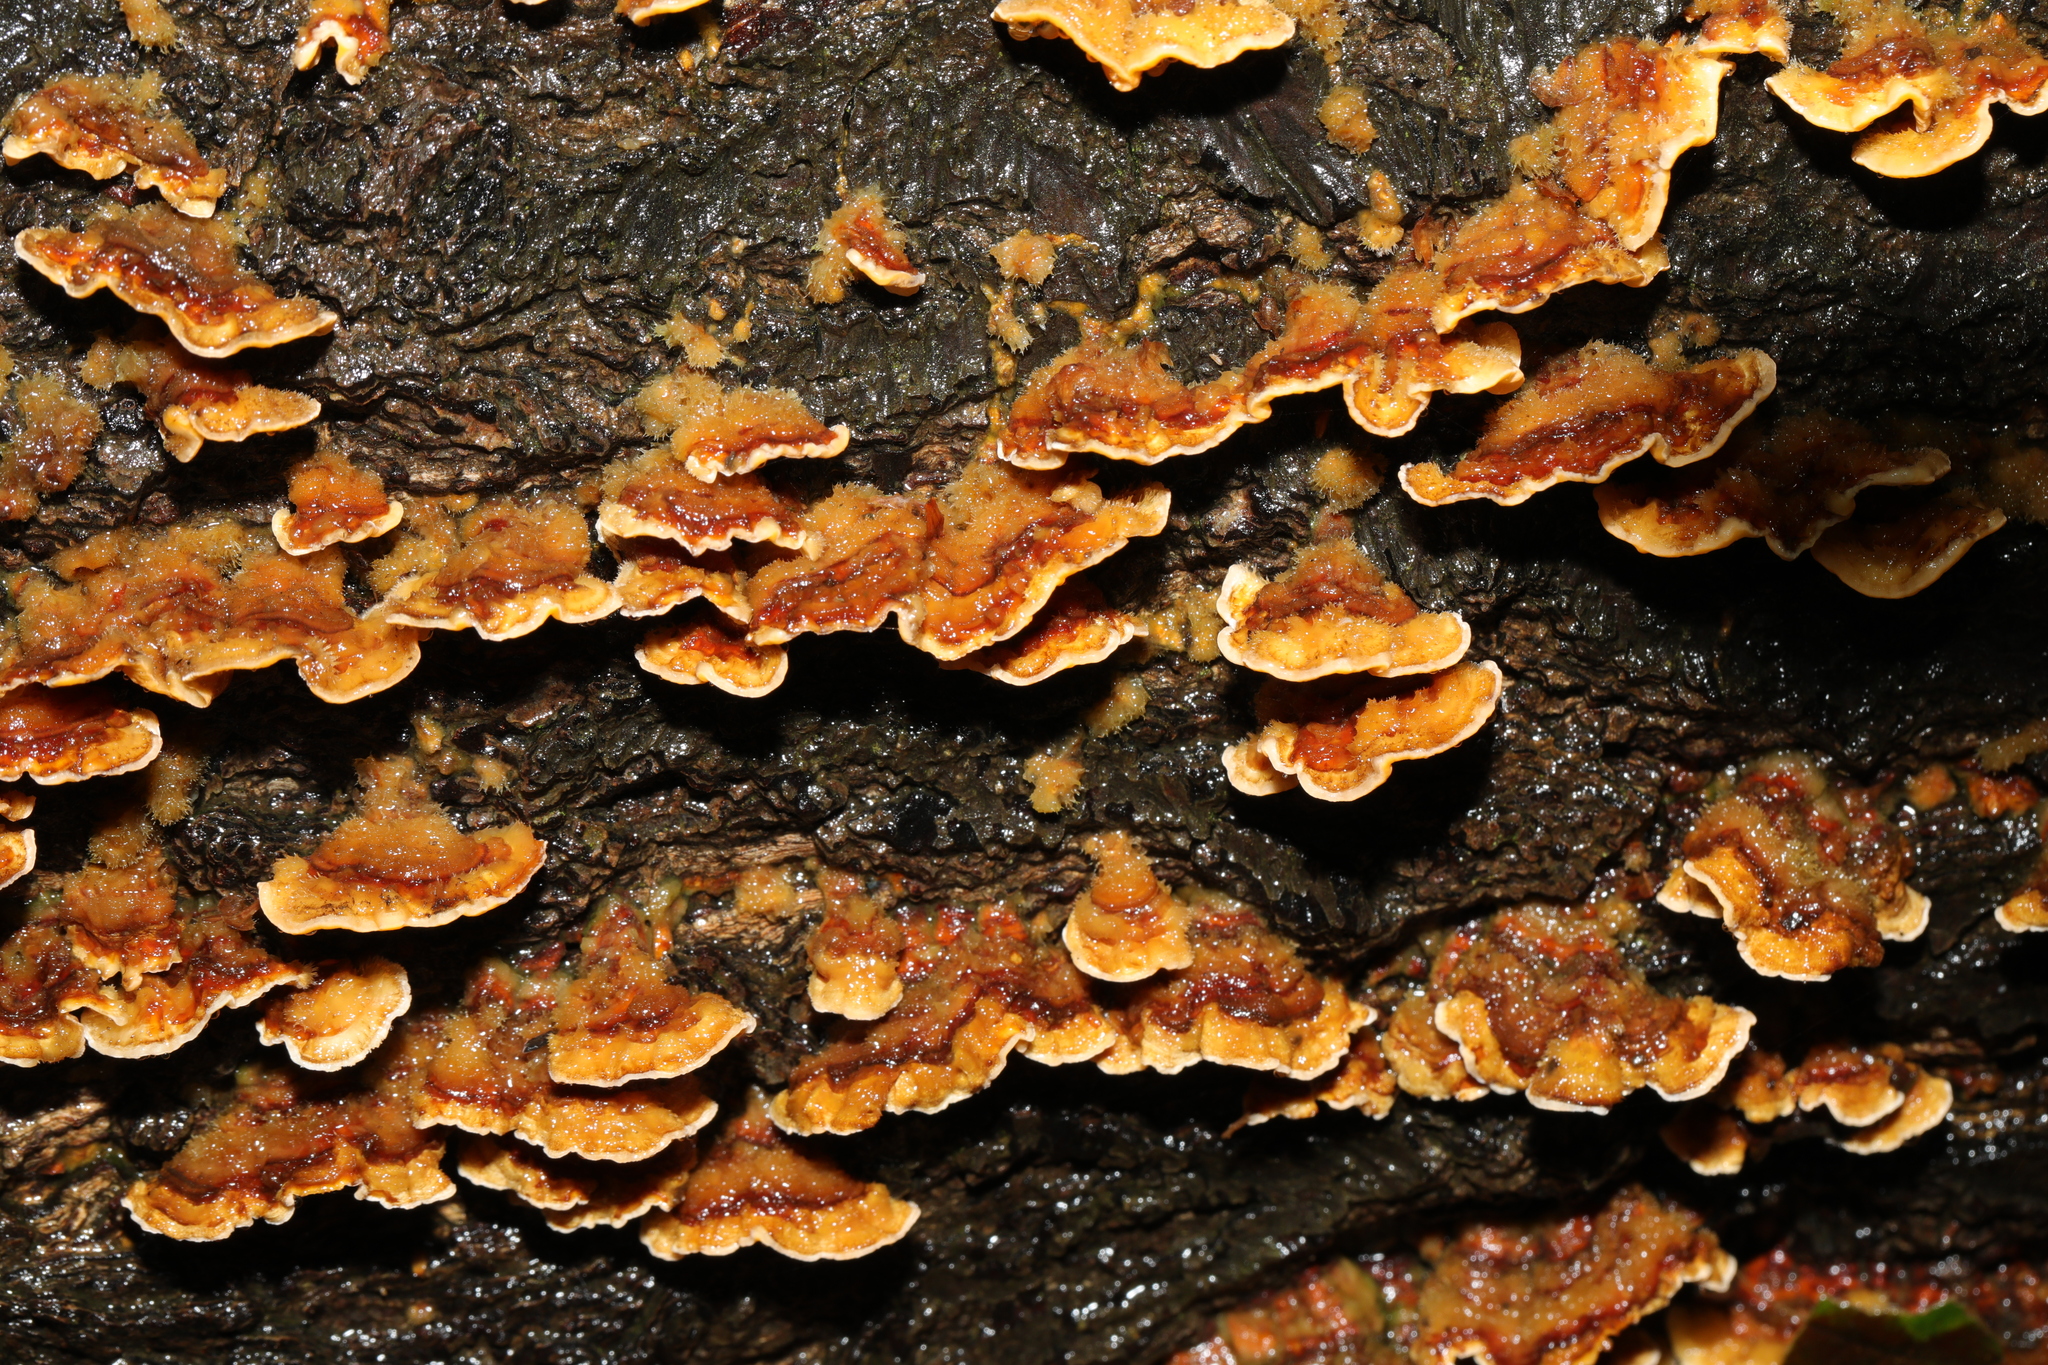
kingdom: Fungi
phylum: Basidiomycota
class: Agaricomycetes
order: Russulales
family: Stereaceae
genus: Stereum
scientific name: Stereum hirsutum
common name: Hairy curtain crust
